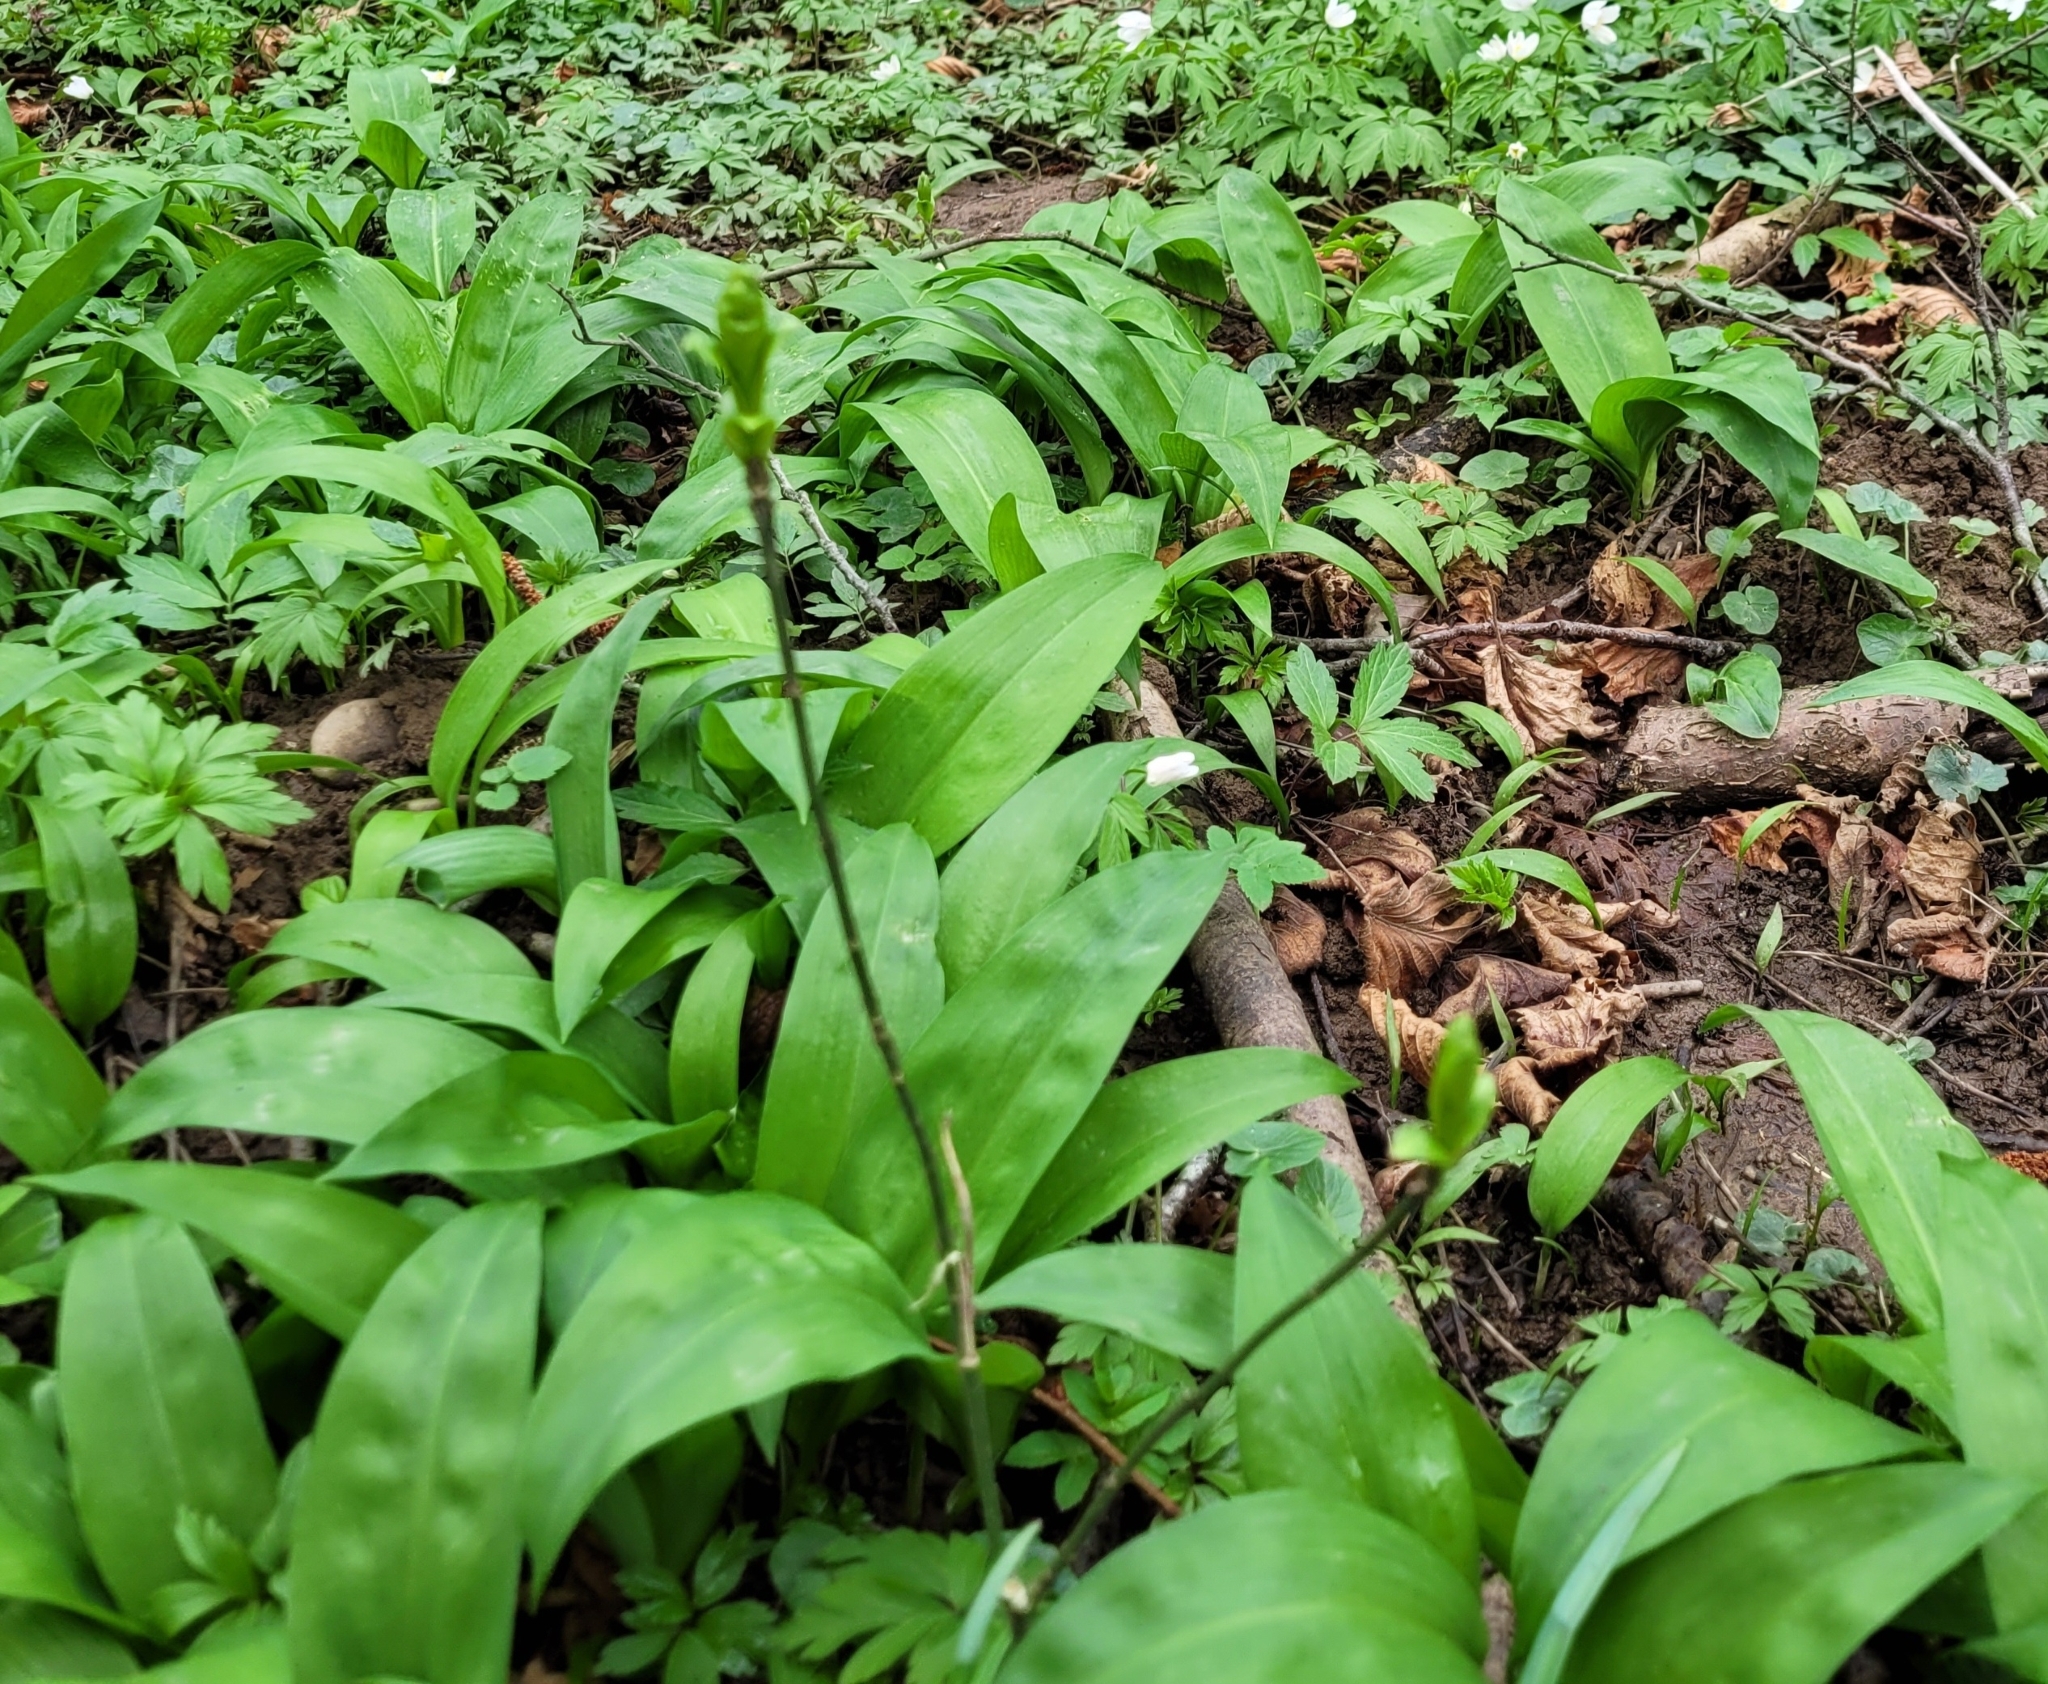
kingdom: Plantae
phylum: Tracheophyta
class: Liliopsida
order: Asparagales
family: Amaryllidaceae
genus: Allium
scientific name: Allium ursinum
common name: Ramsons
